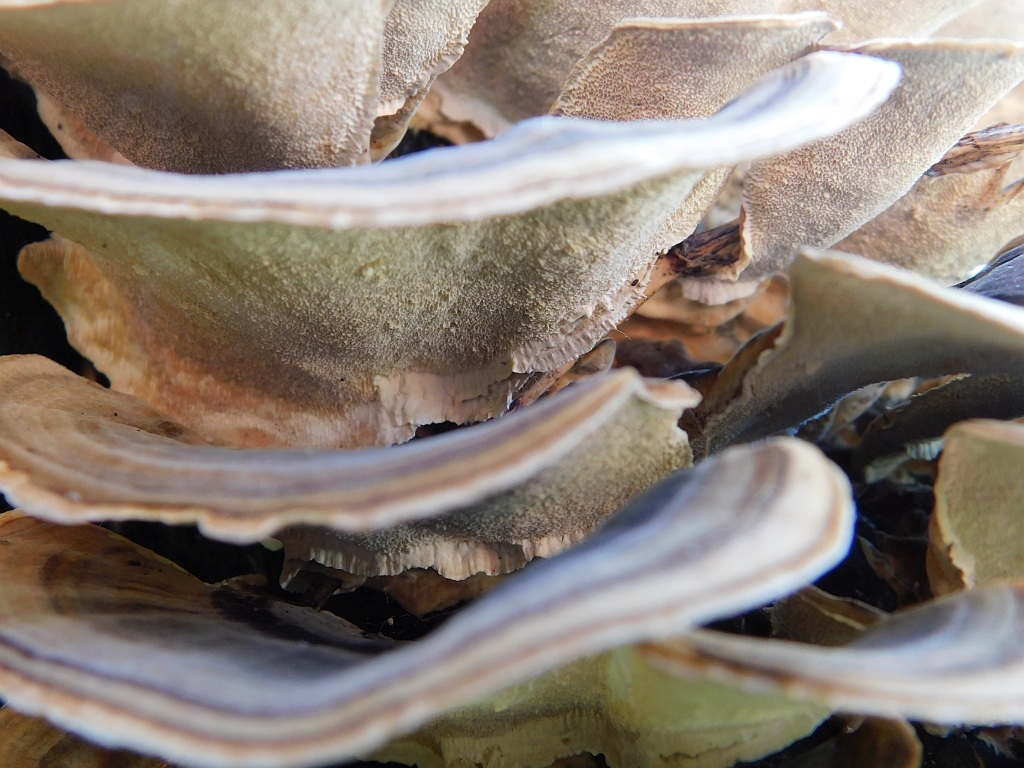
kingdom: Fungi
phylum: Basidiomycota
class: Agaricomycetes
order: Polyporales
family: Polyporaceae
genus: Trametes
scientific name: Trametes versicolor
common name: Turkeytail
